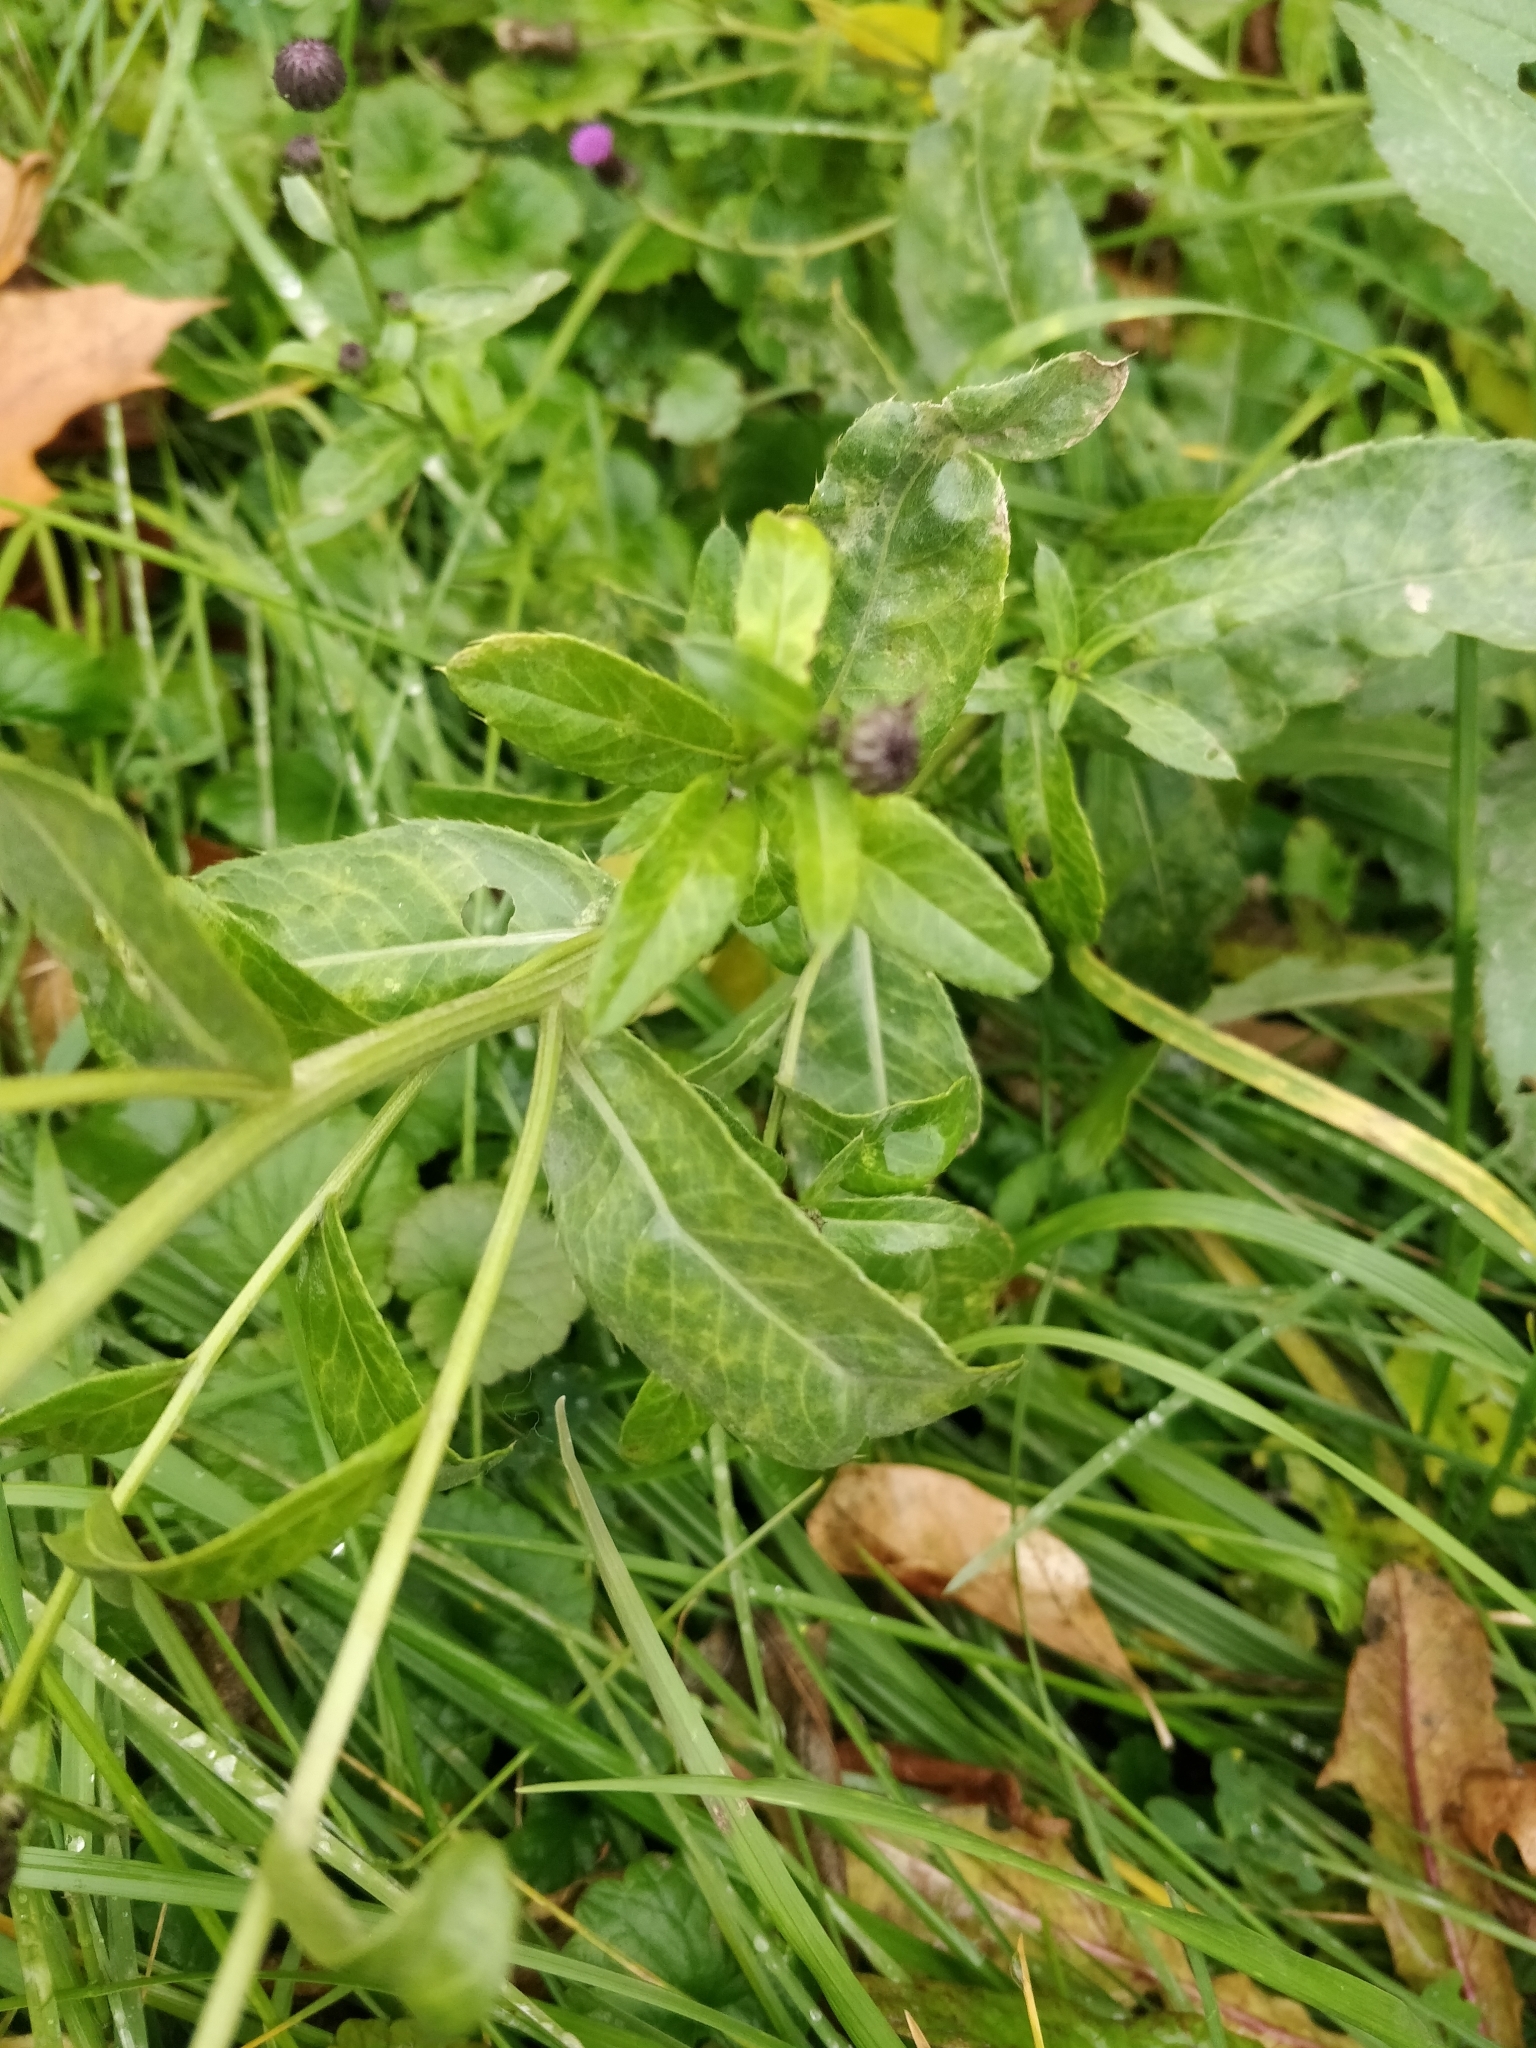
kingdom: Plantae
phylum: Tracheophyta
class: Magnoliopsida
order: Asterales
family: Asteraceae
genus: Cirsium
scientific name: Cirsium arvense
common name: Creeping thistle
